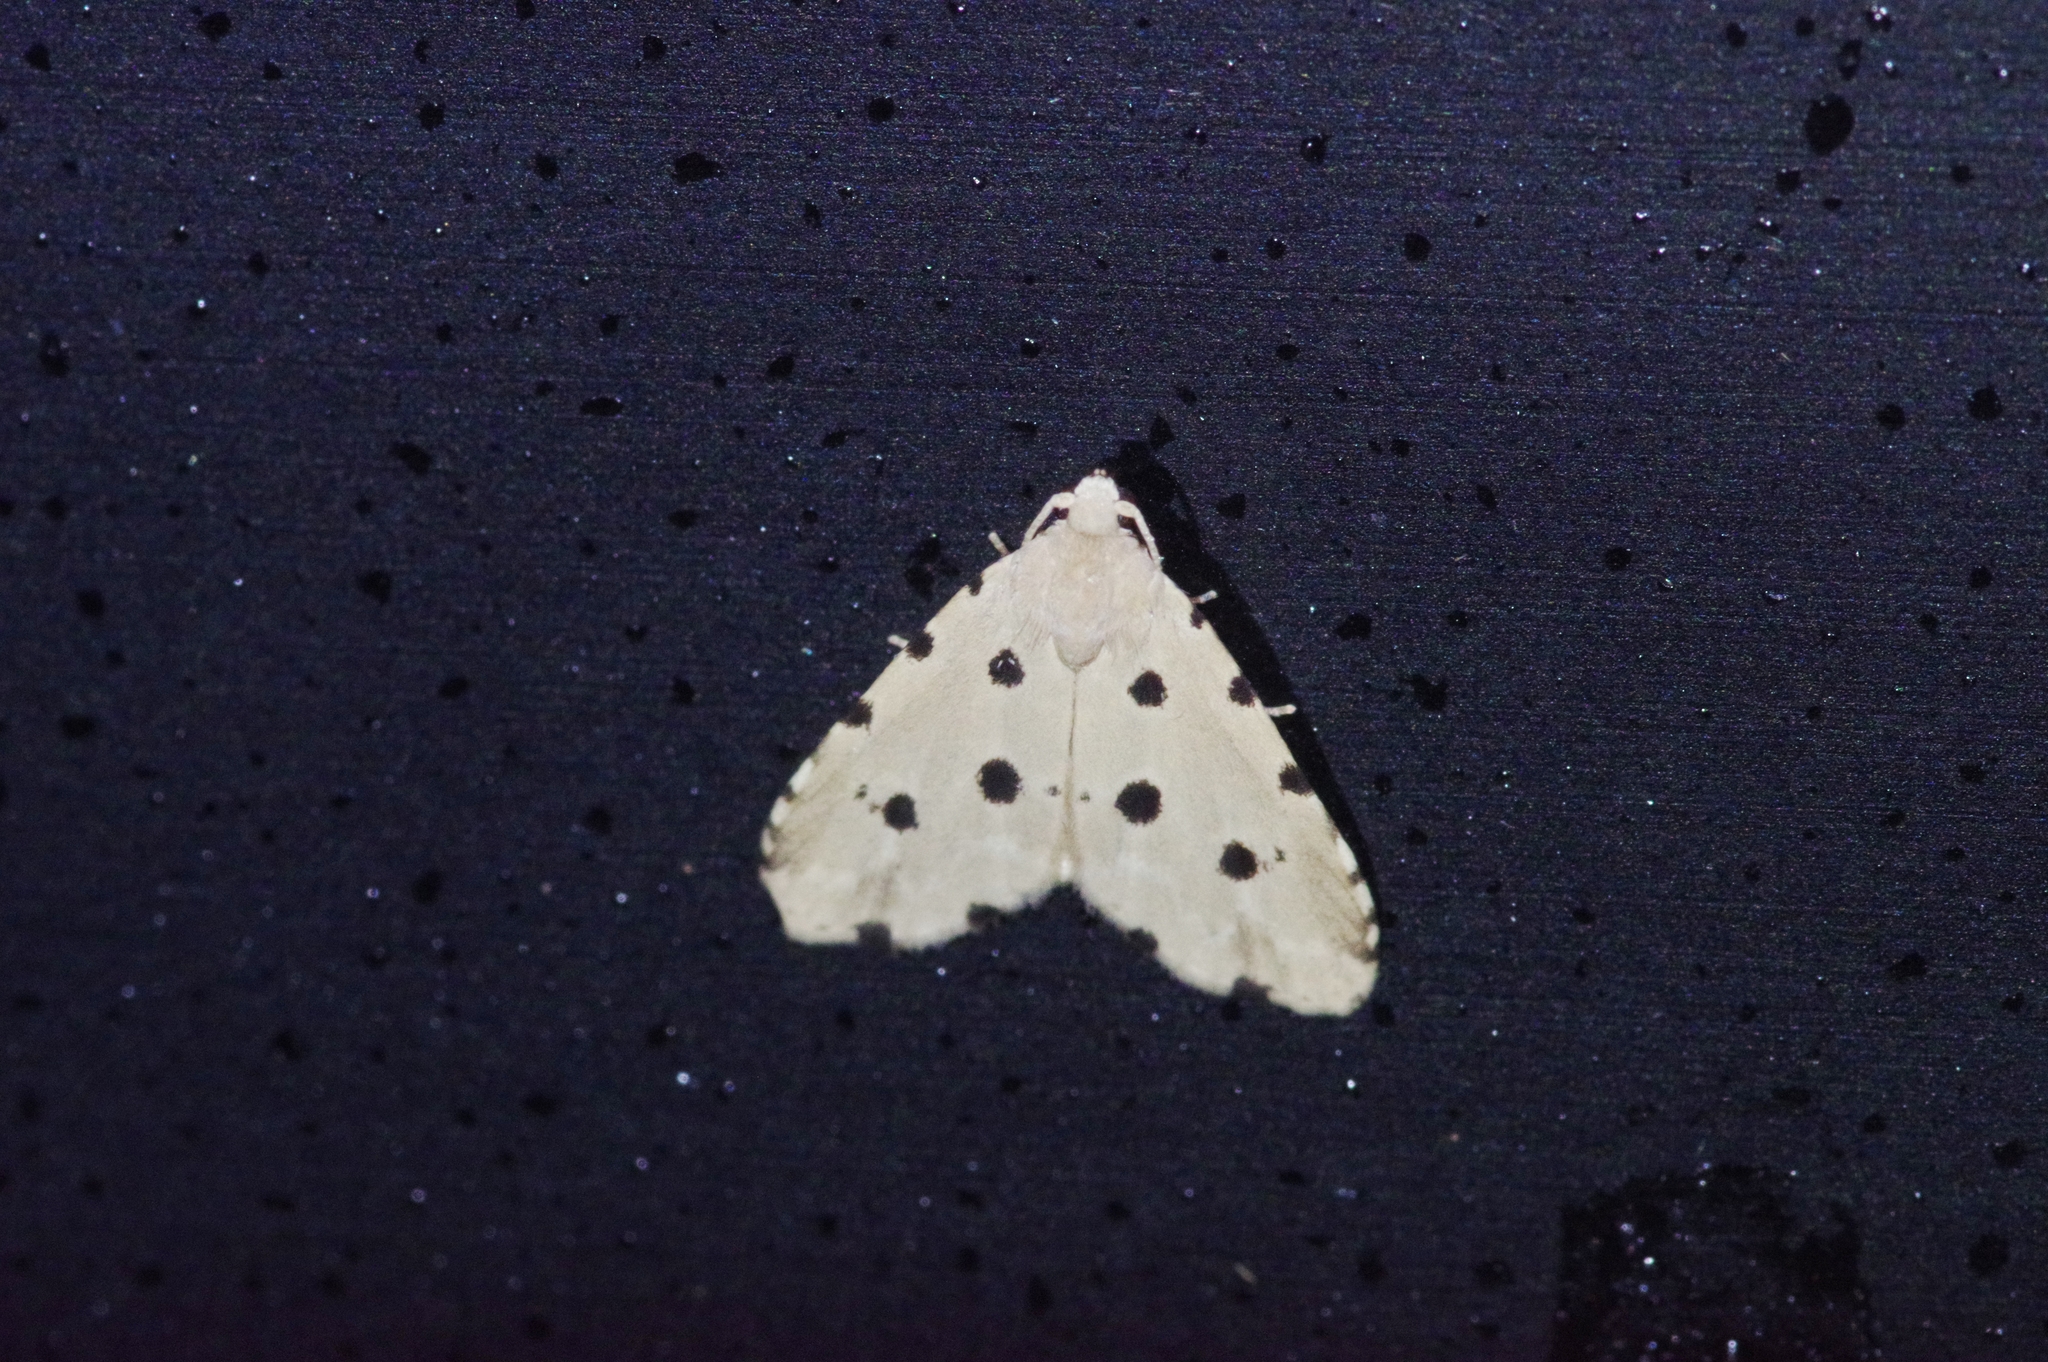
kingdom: Animalia
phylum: Arthropoda
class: Insecta
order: Lepidoptera
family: Noctuidae
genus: Metaemene
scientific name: Metaemene atrigutta
